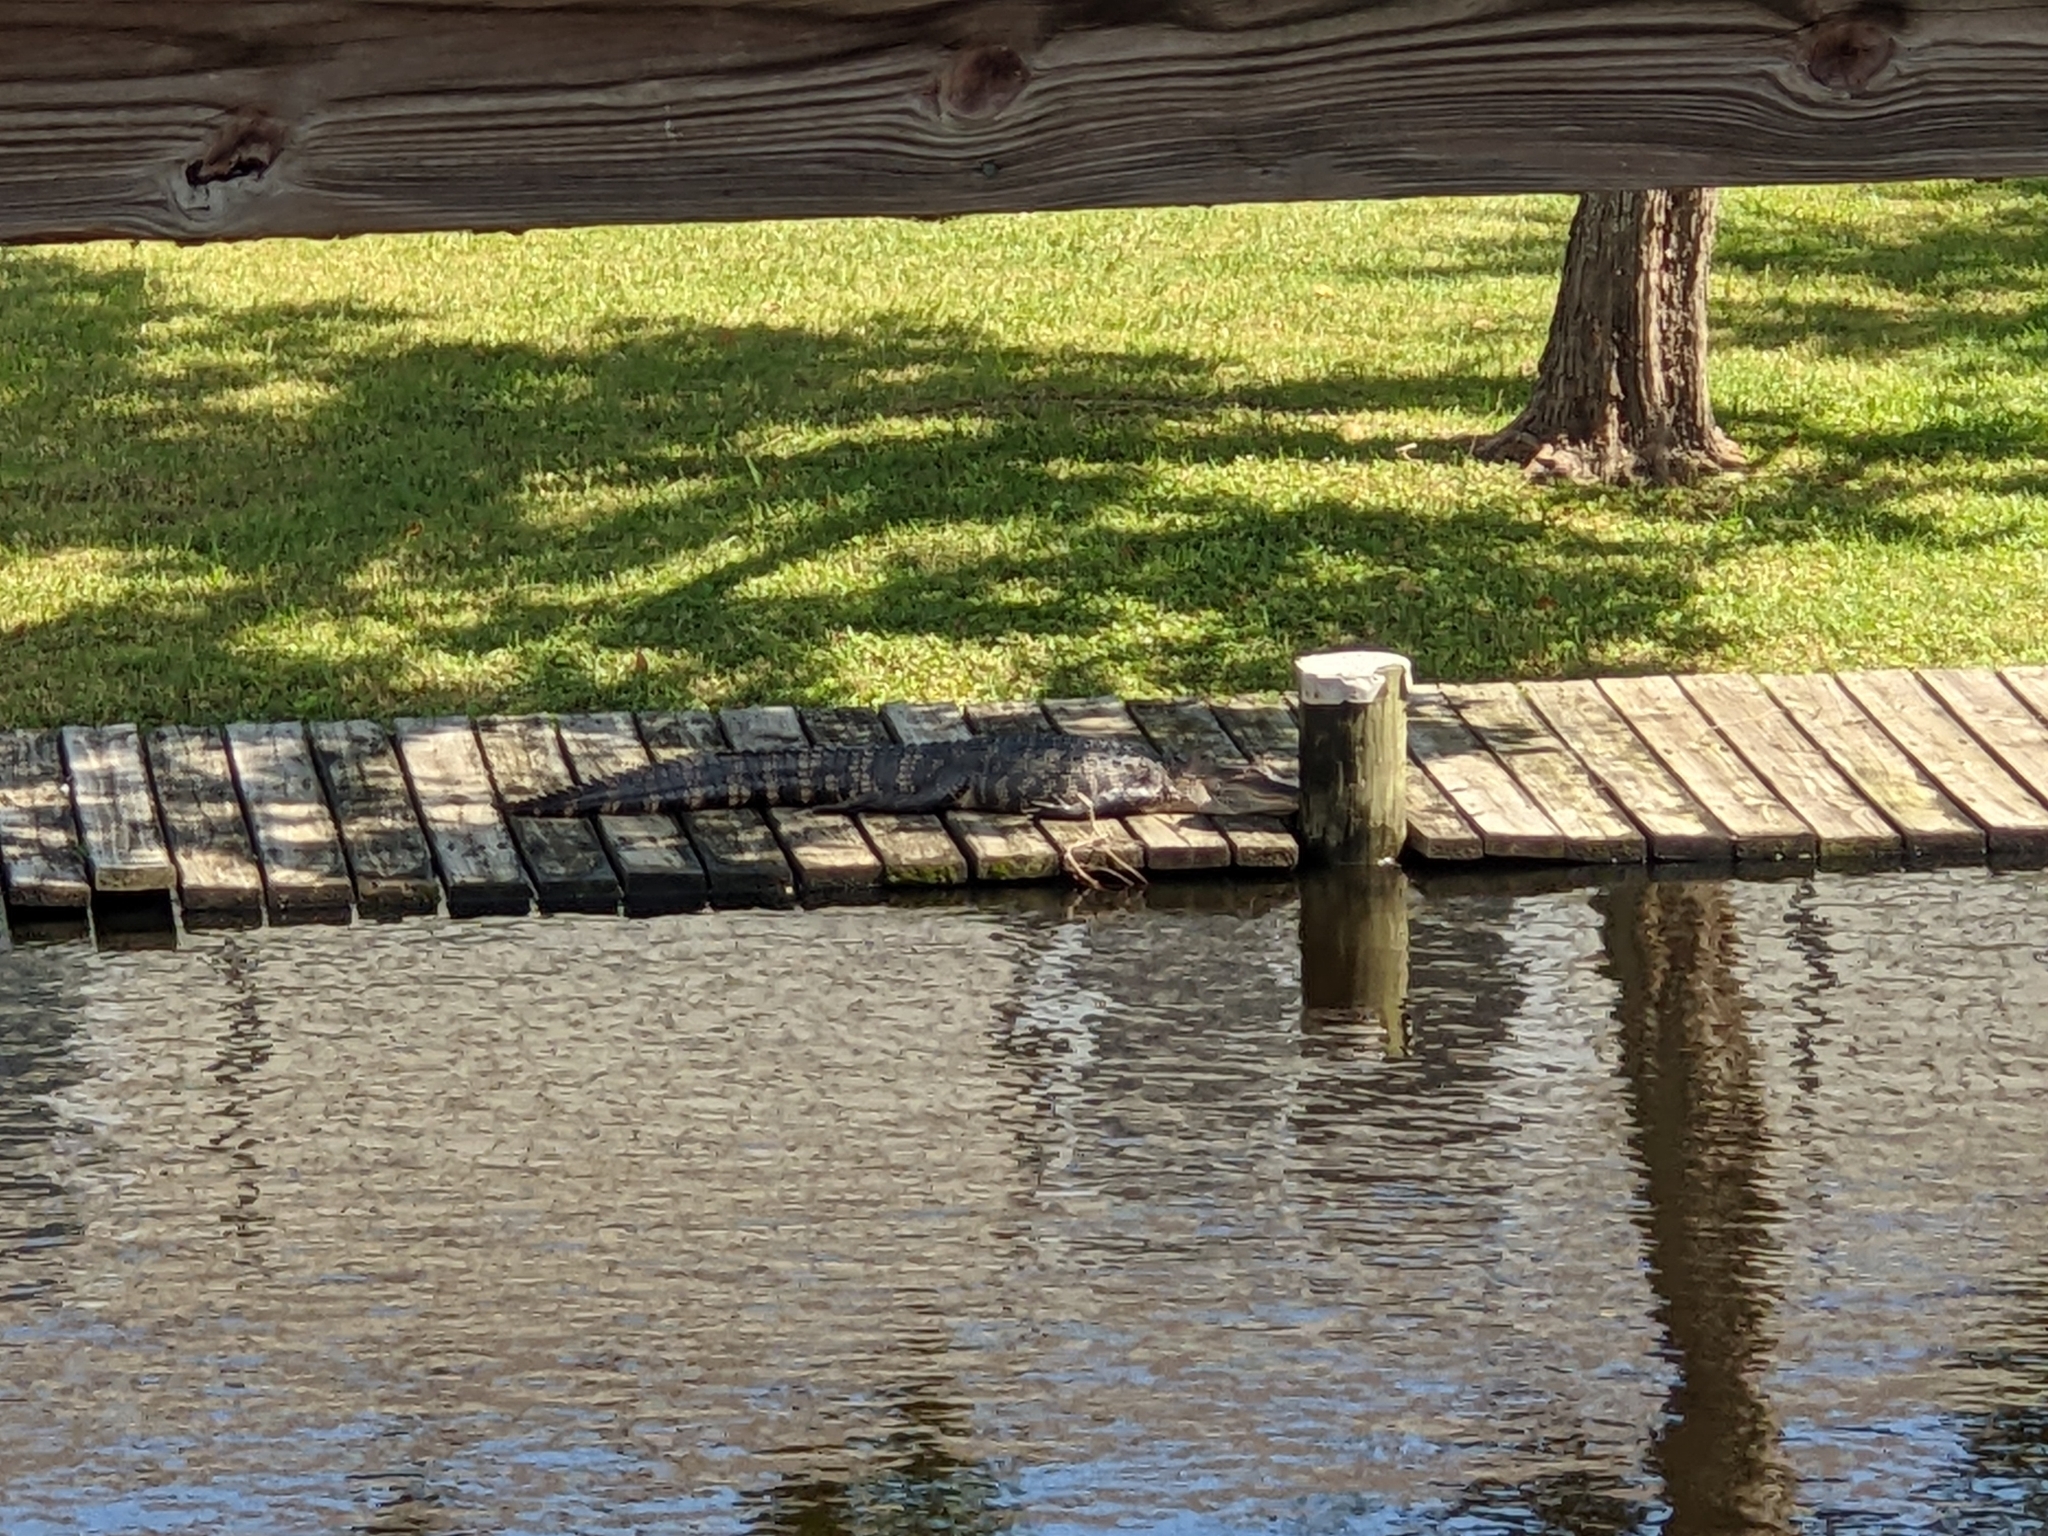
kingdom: Animalia
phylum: Chordata
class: Crocodylia
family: Alligatoridae
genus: Alligator
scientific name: Alligator mississippiensis
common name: American alligator
